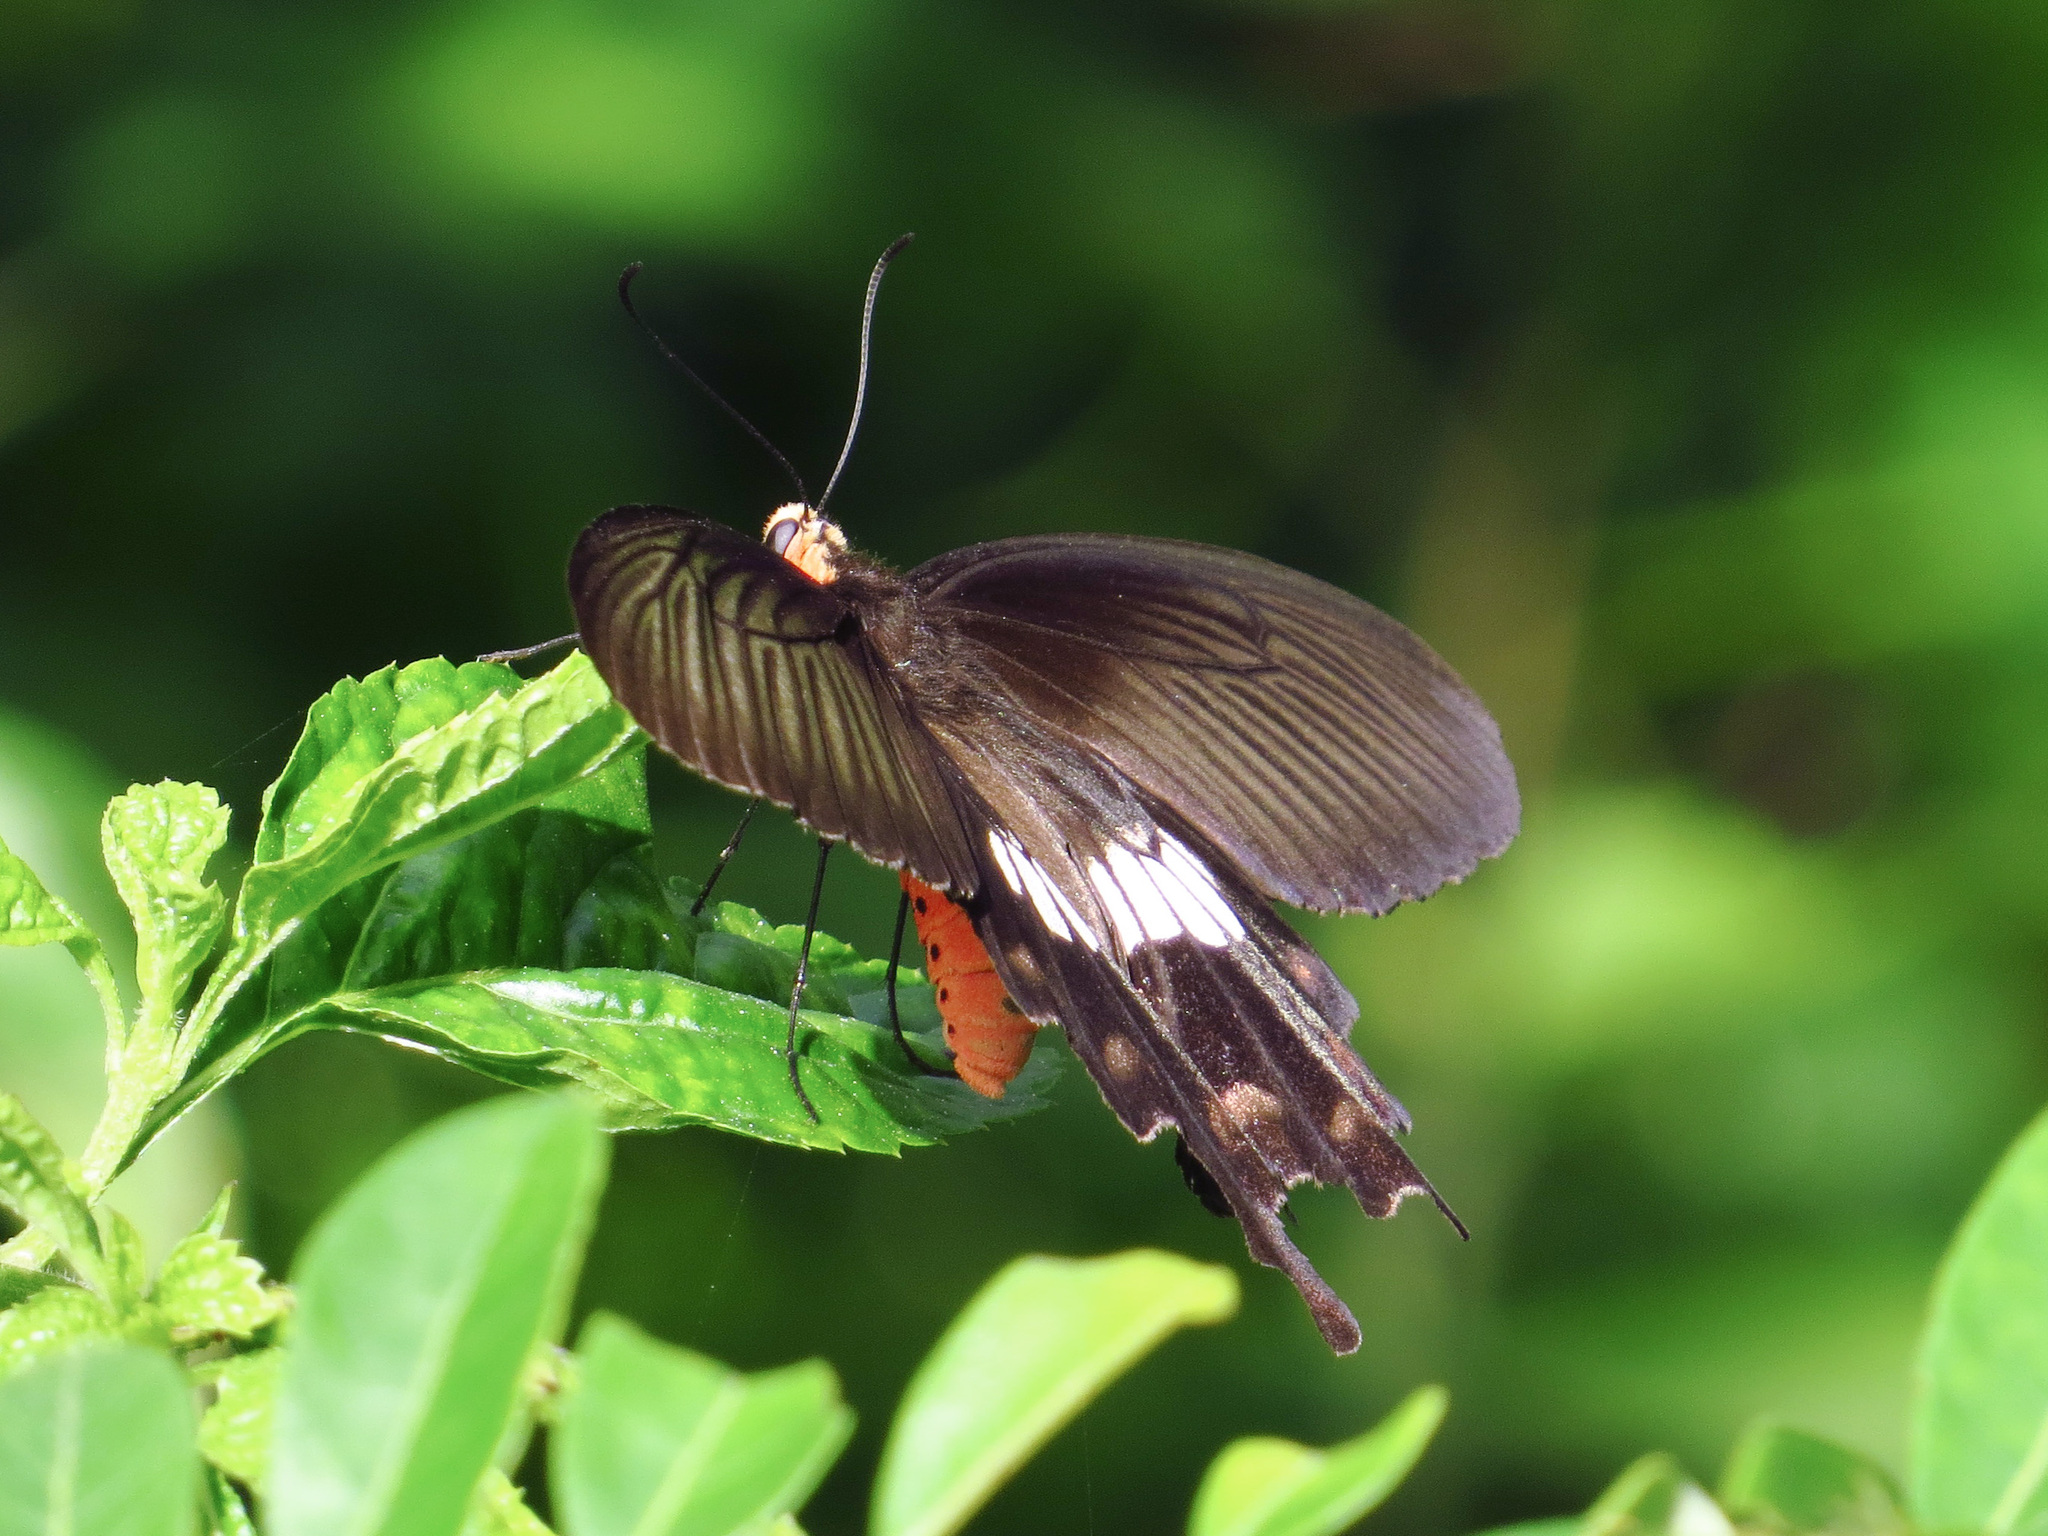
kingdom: Animalia
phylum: Arthropoda
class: Insecta
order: Lepidoptera
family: Papilionidae
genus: Pachliopta
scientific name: Pachliopta aristolochiae
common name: Common rose
